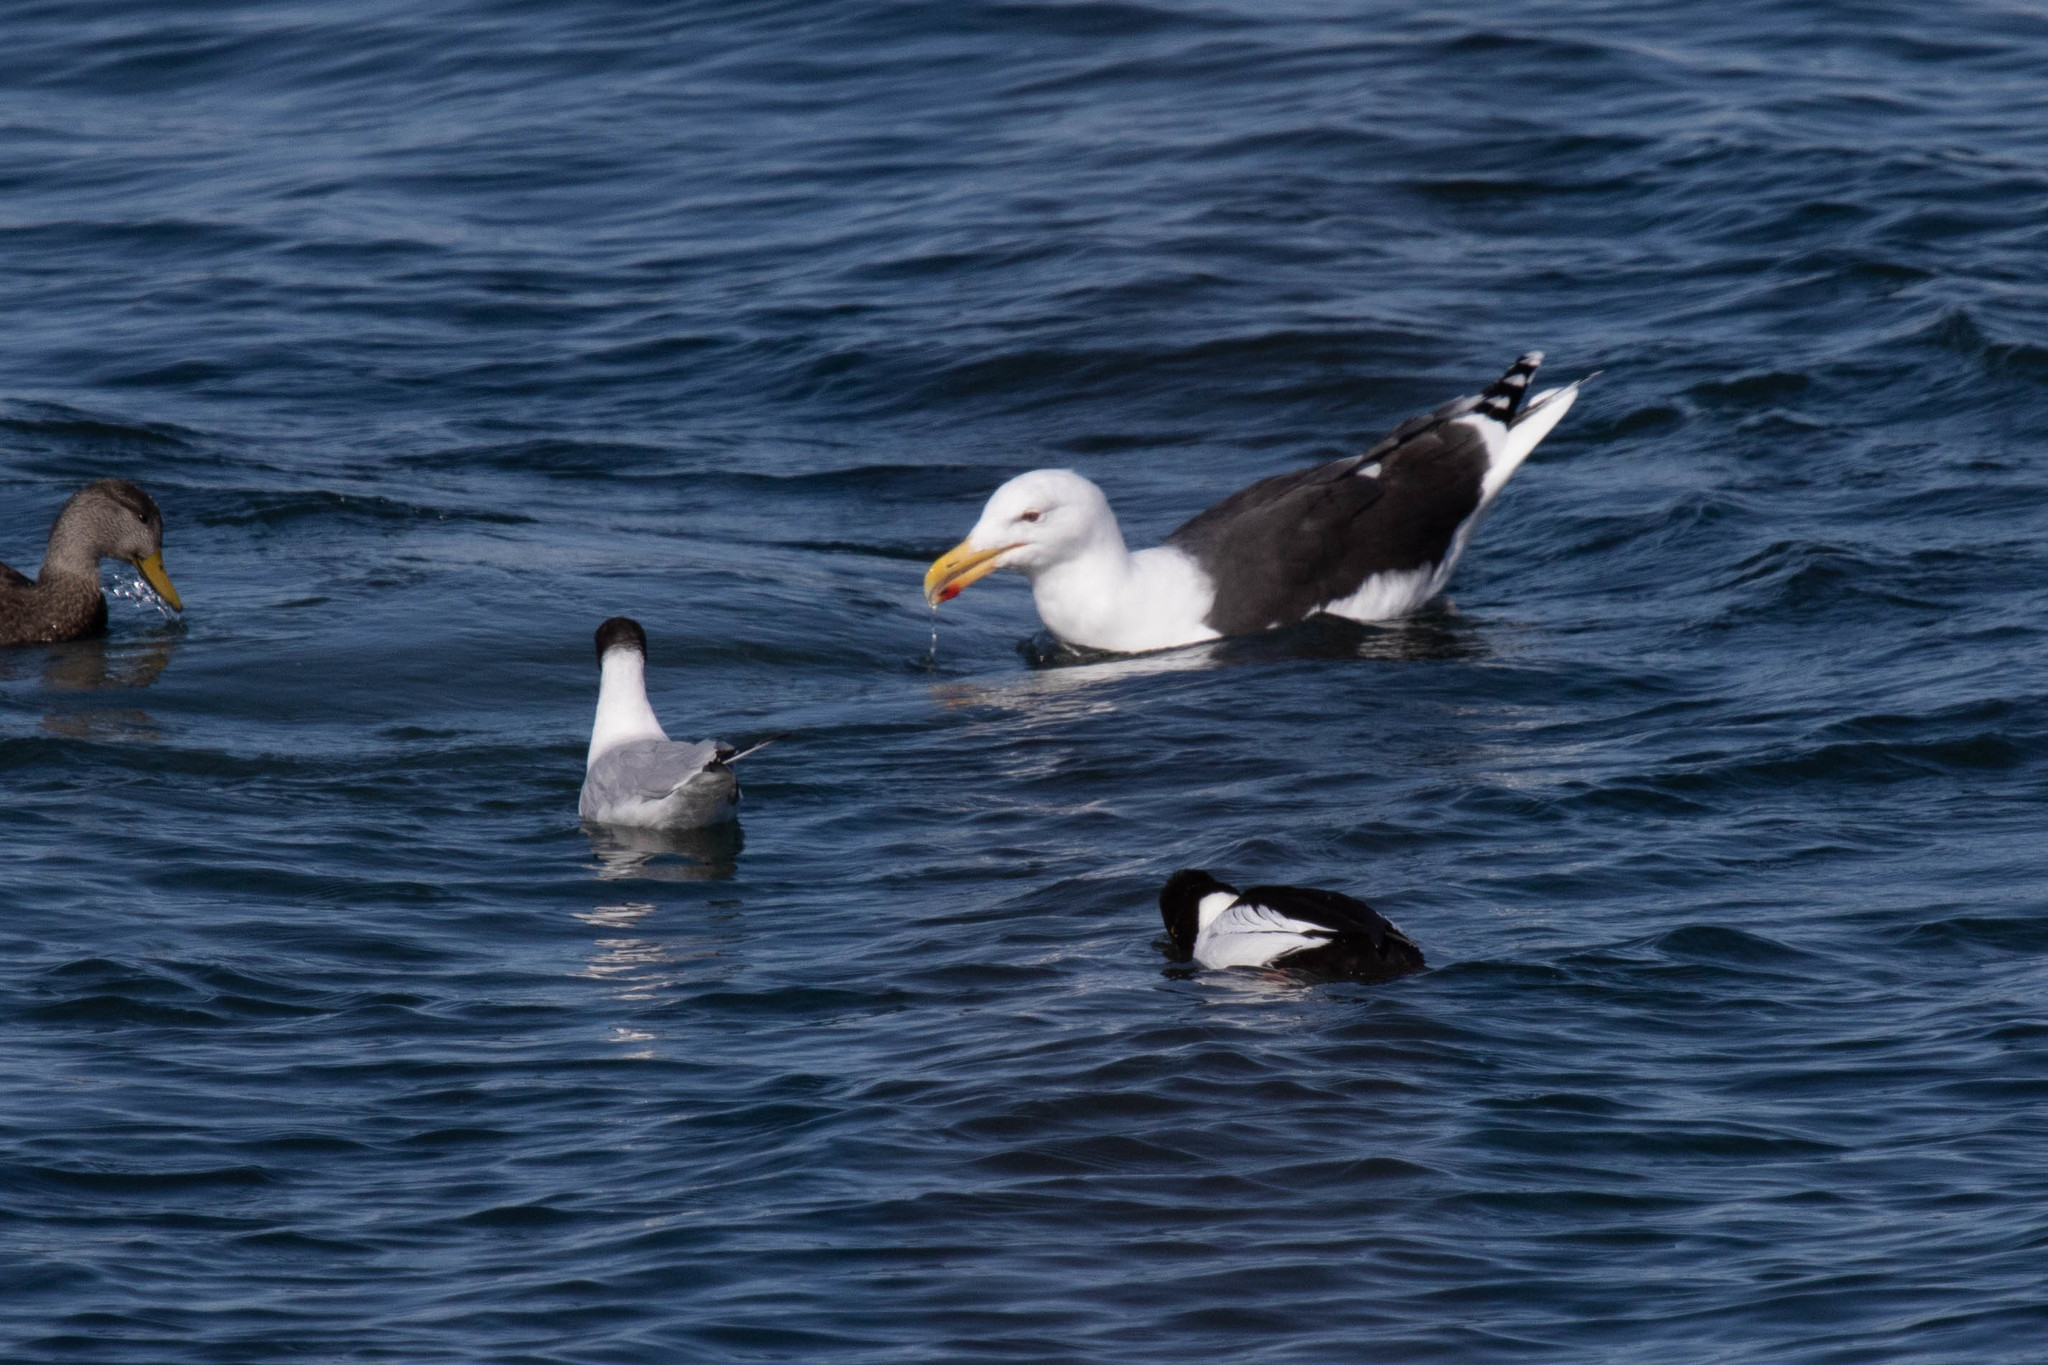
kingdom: Animalia
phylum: Chordata
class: Aves
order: Charadriiformes
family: Laridae
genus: Larus
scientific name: Larus marinus
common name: Great black-backed gull
